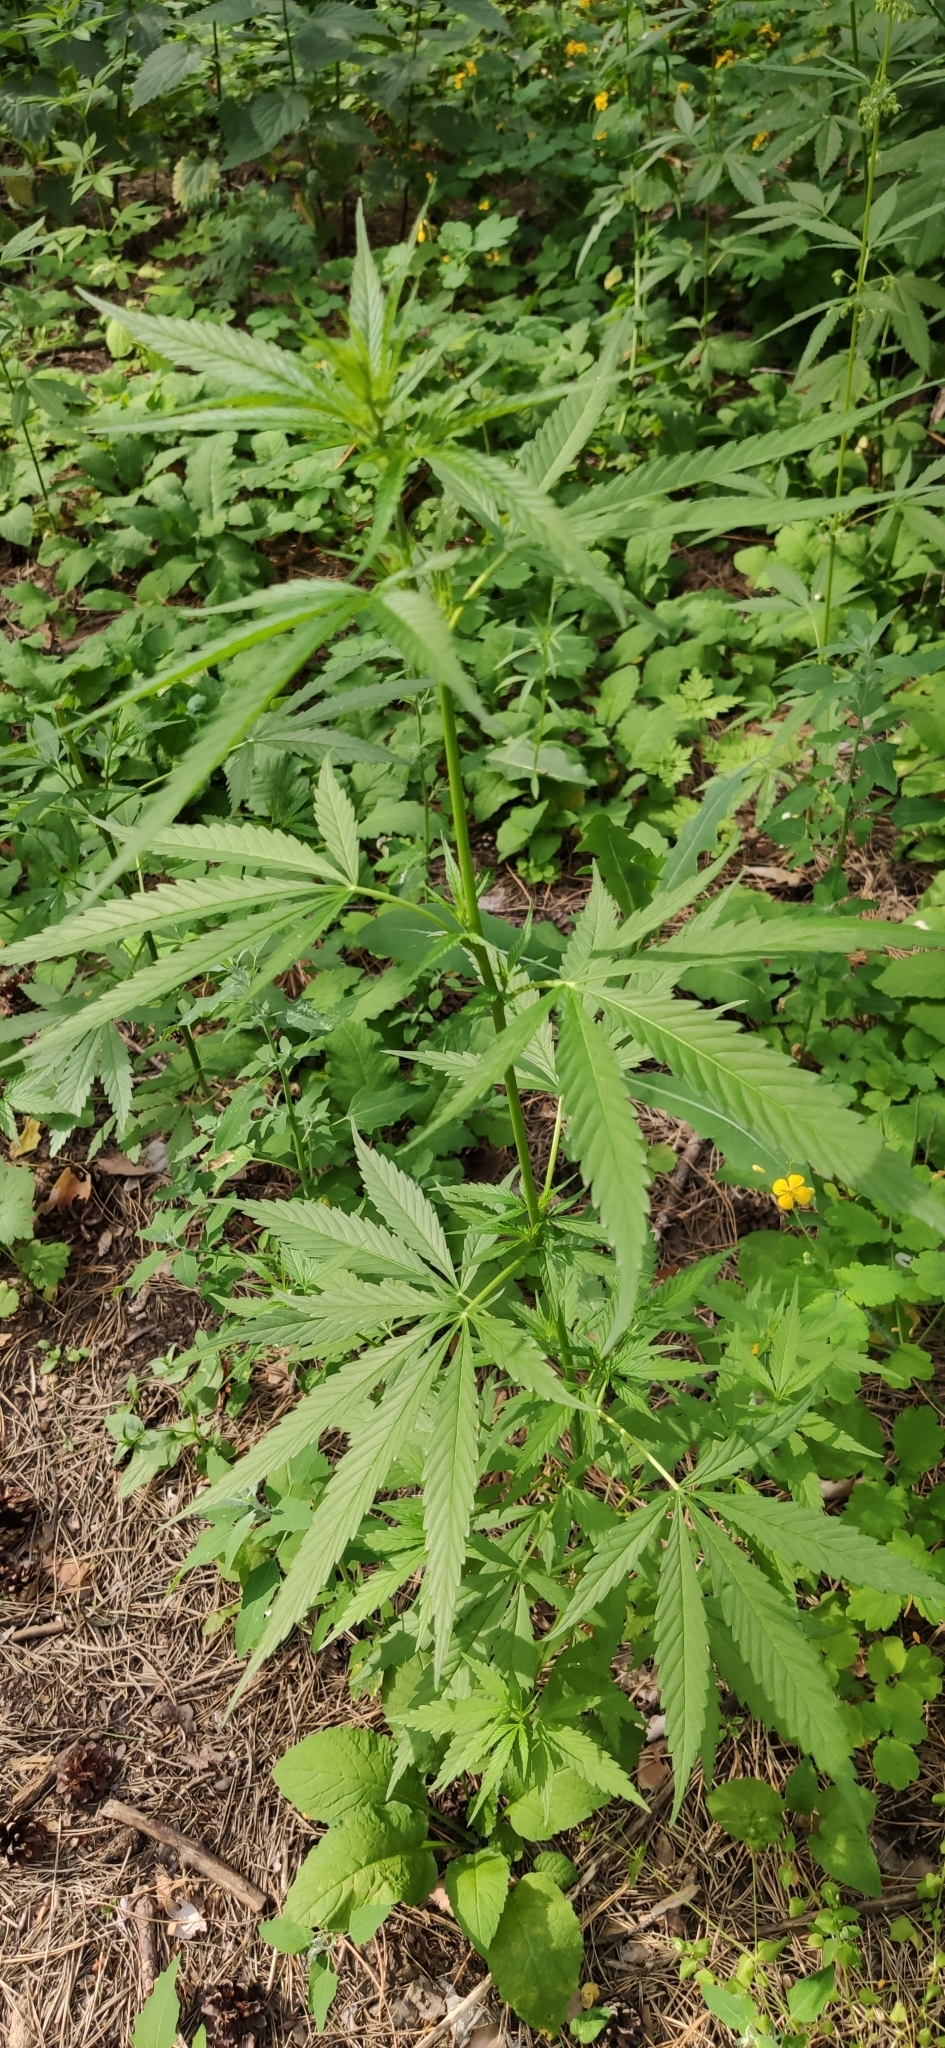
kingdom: Plantae
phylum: Tracheophyta
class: Magnoliopsida
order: Rosales
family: Cannabaceae
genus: Cannabis
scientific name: Cannabis sativa
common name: Hemp
